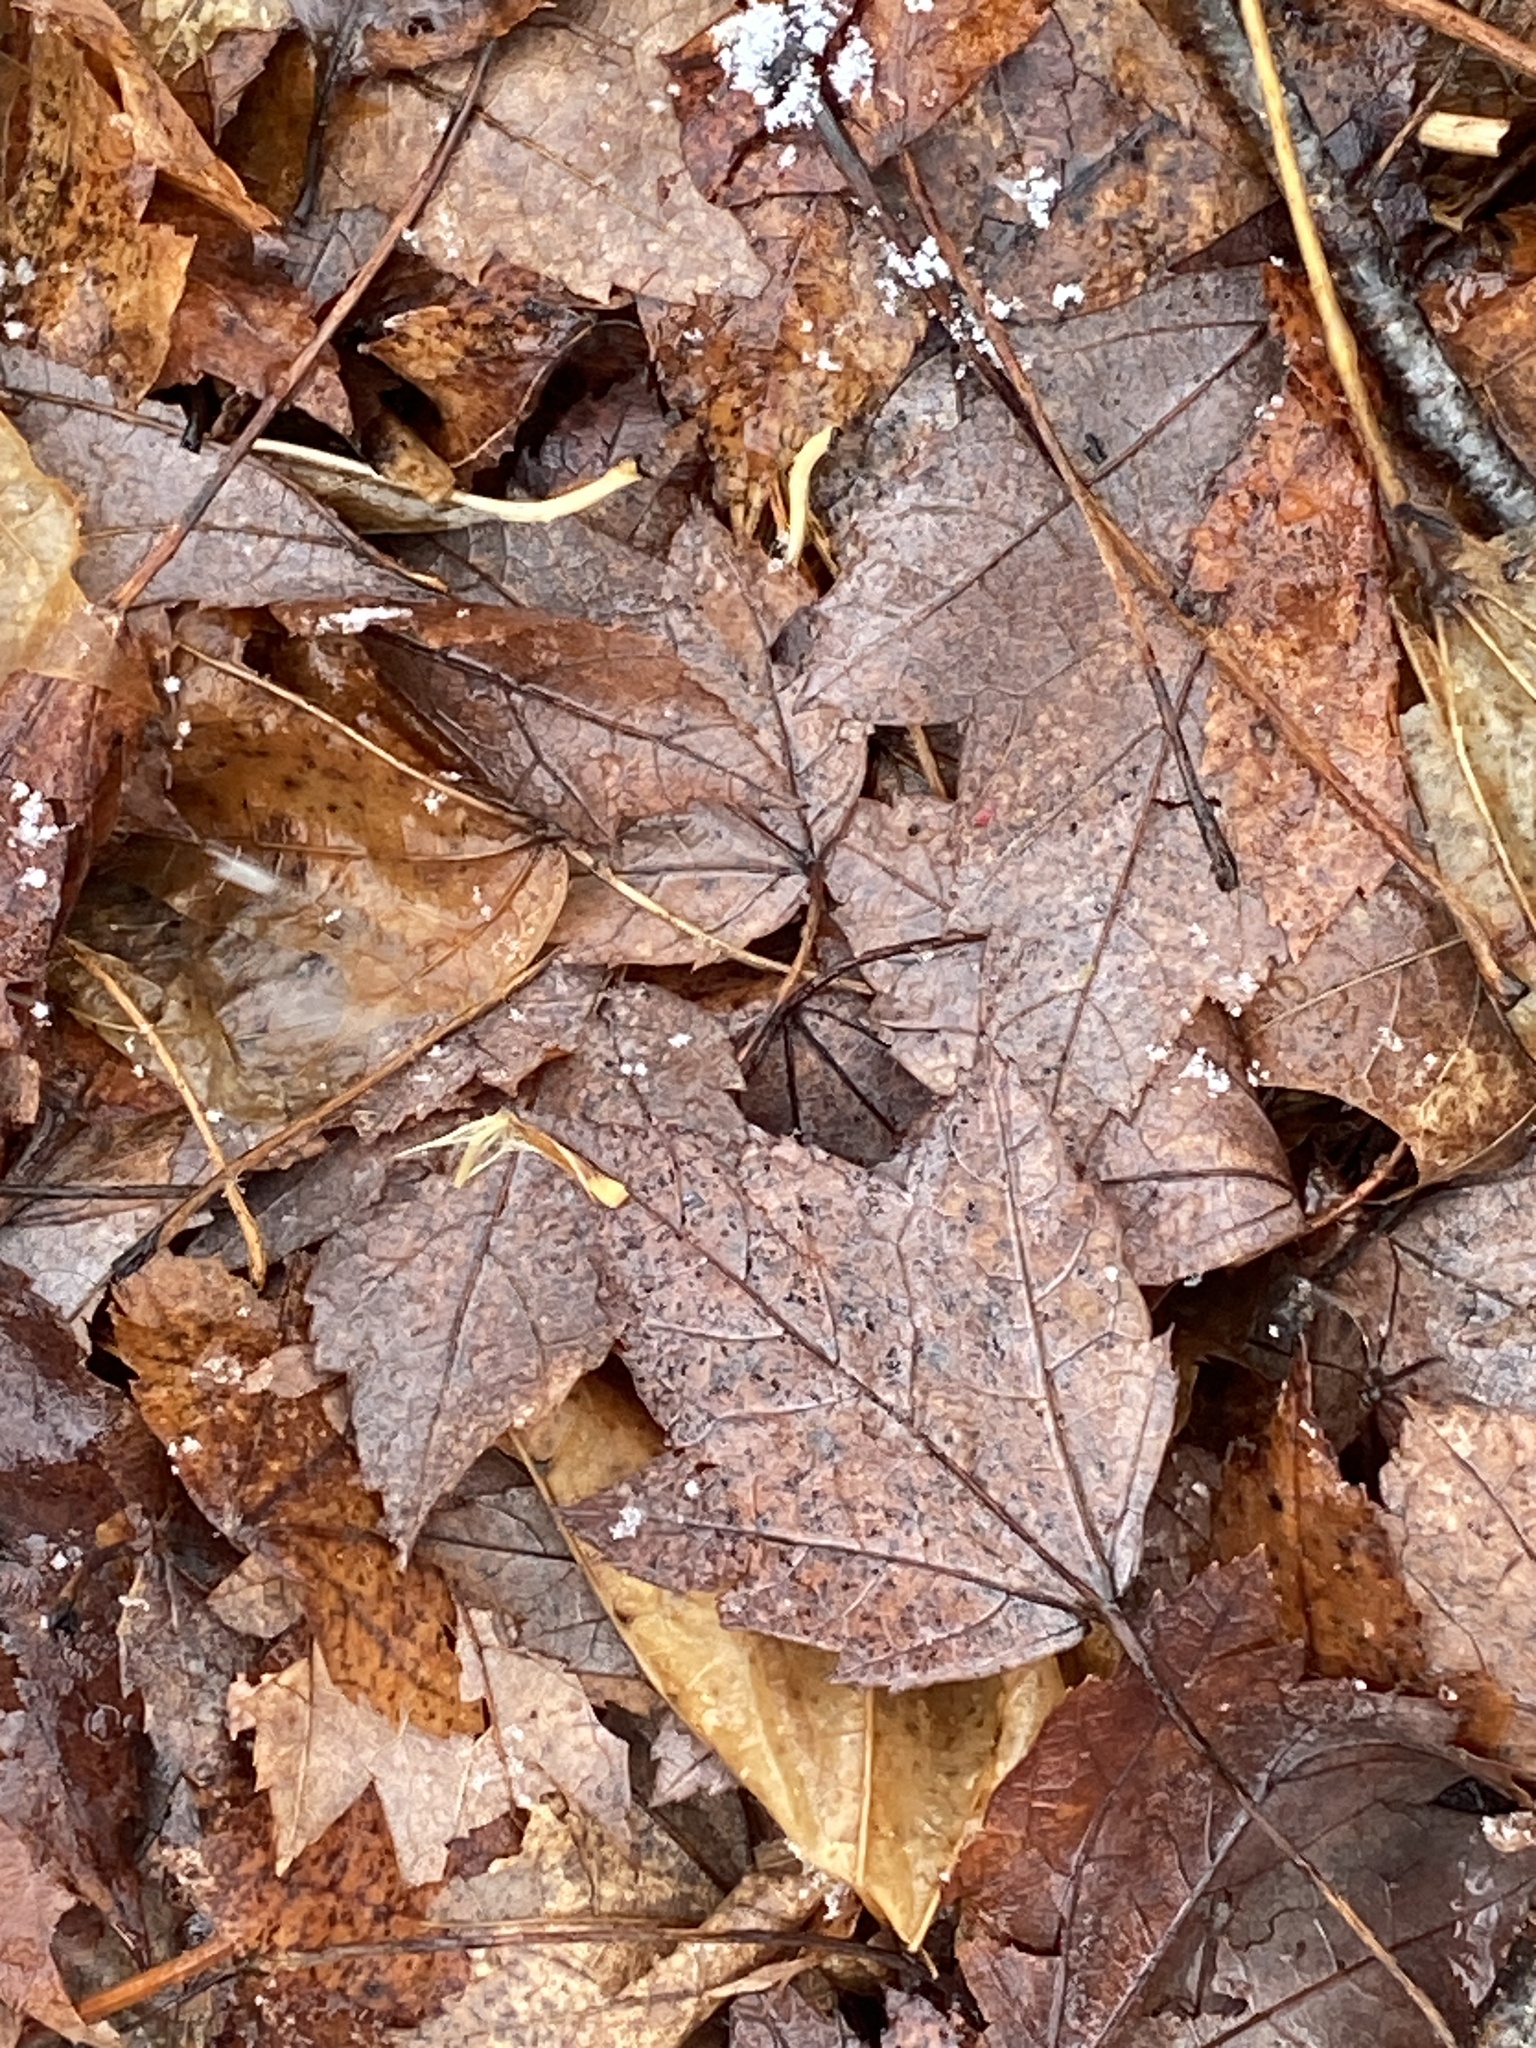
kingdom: Plantae
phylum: Tracheophyta
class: Magnoliopsida
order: Sapindales
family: Sapindaceae
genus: Acer
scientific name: Acer rubrum
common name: Red maple
